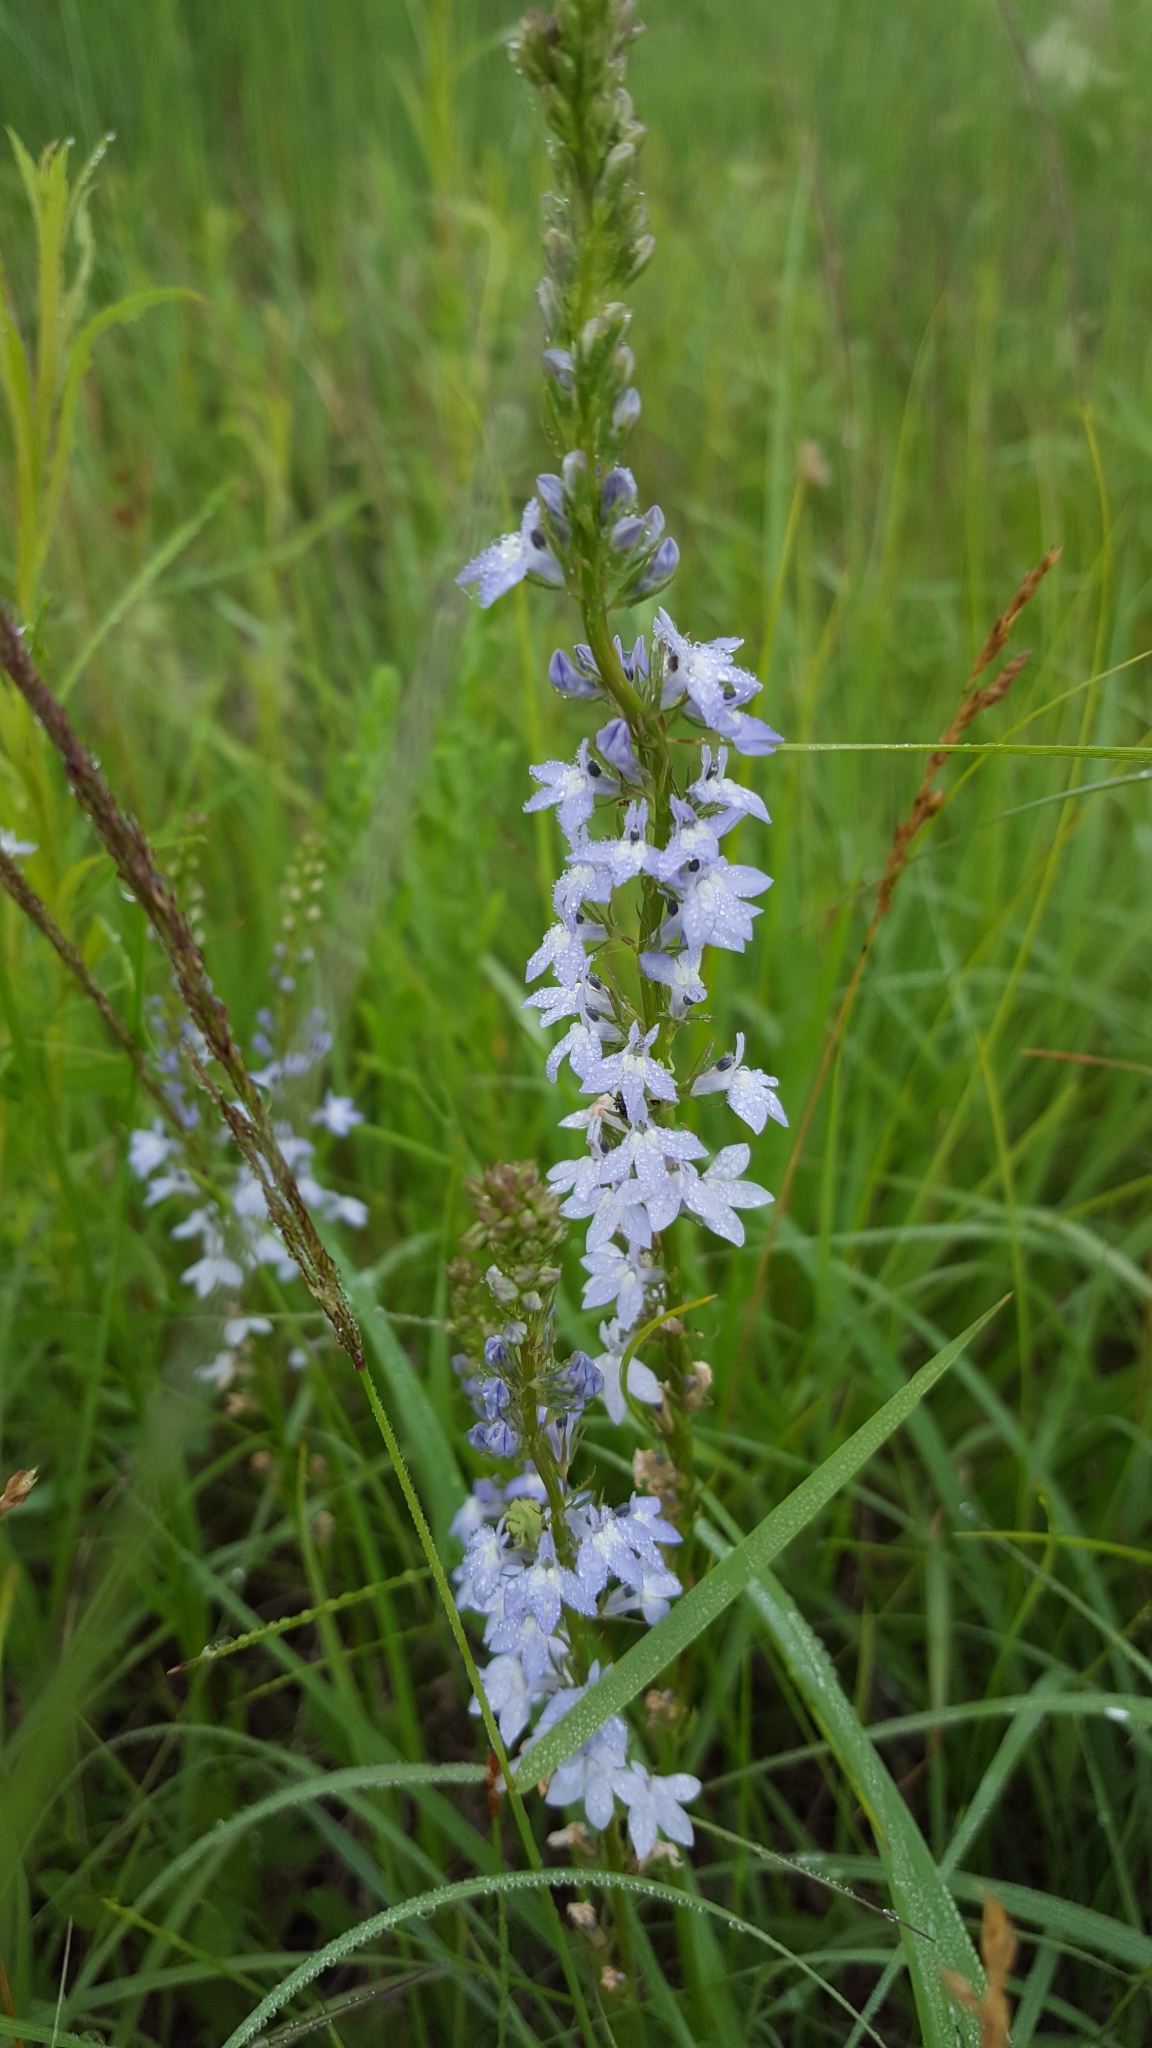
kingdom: Plantae
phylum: Tracheophyta
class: Magnoliopsida
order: Asterales
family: Campanulaceae
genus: Lobelia
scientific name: Lobelia spicata
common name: Pale-spike lobelia
